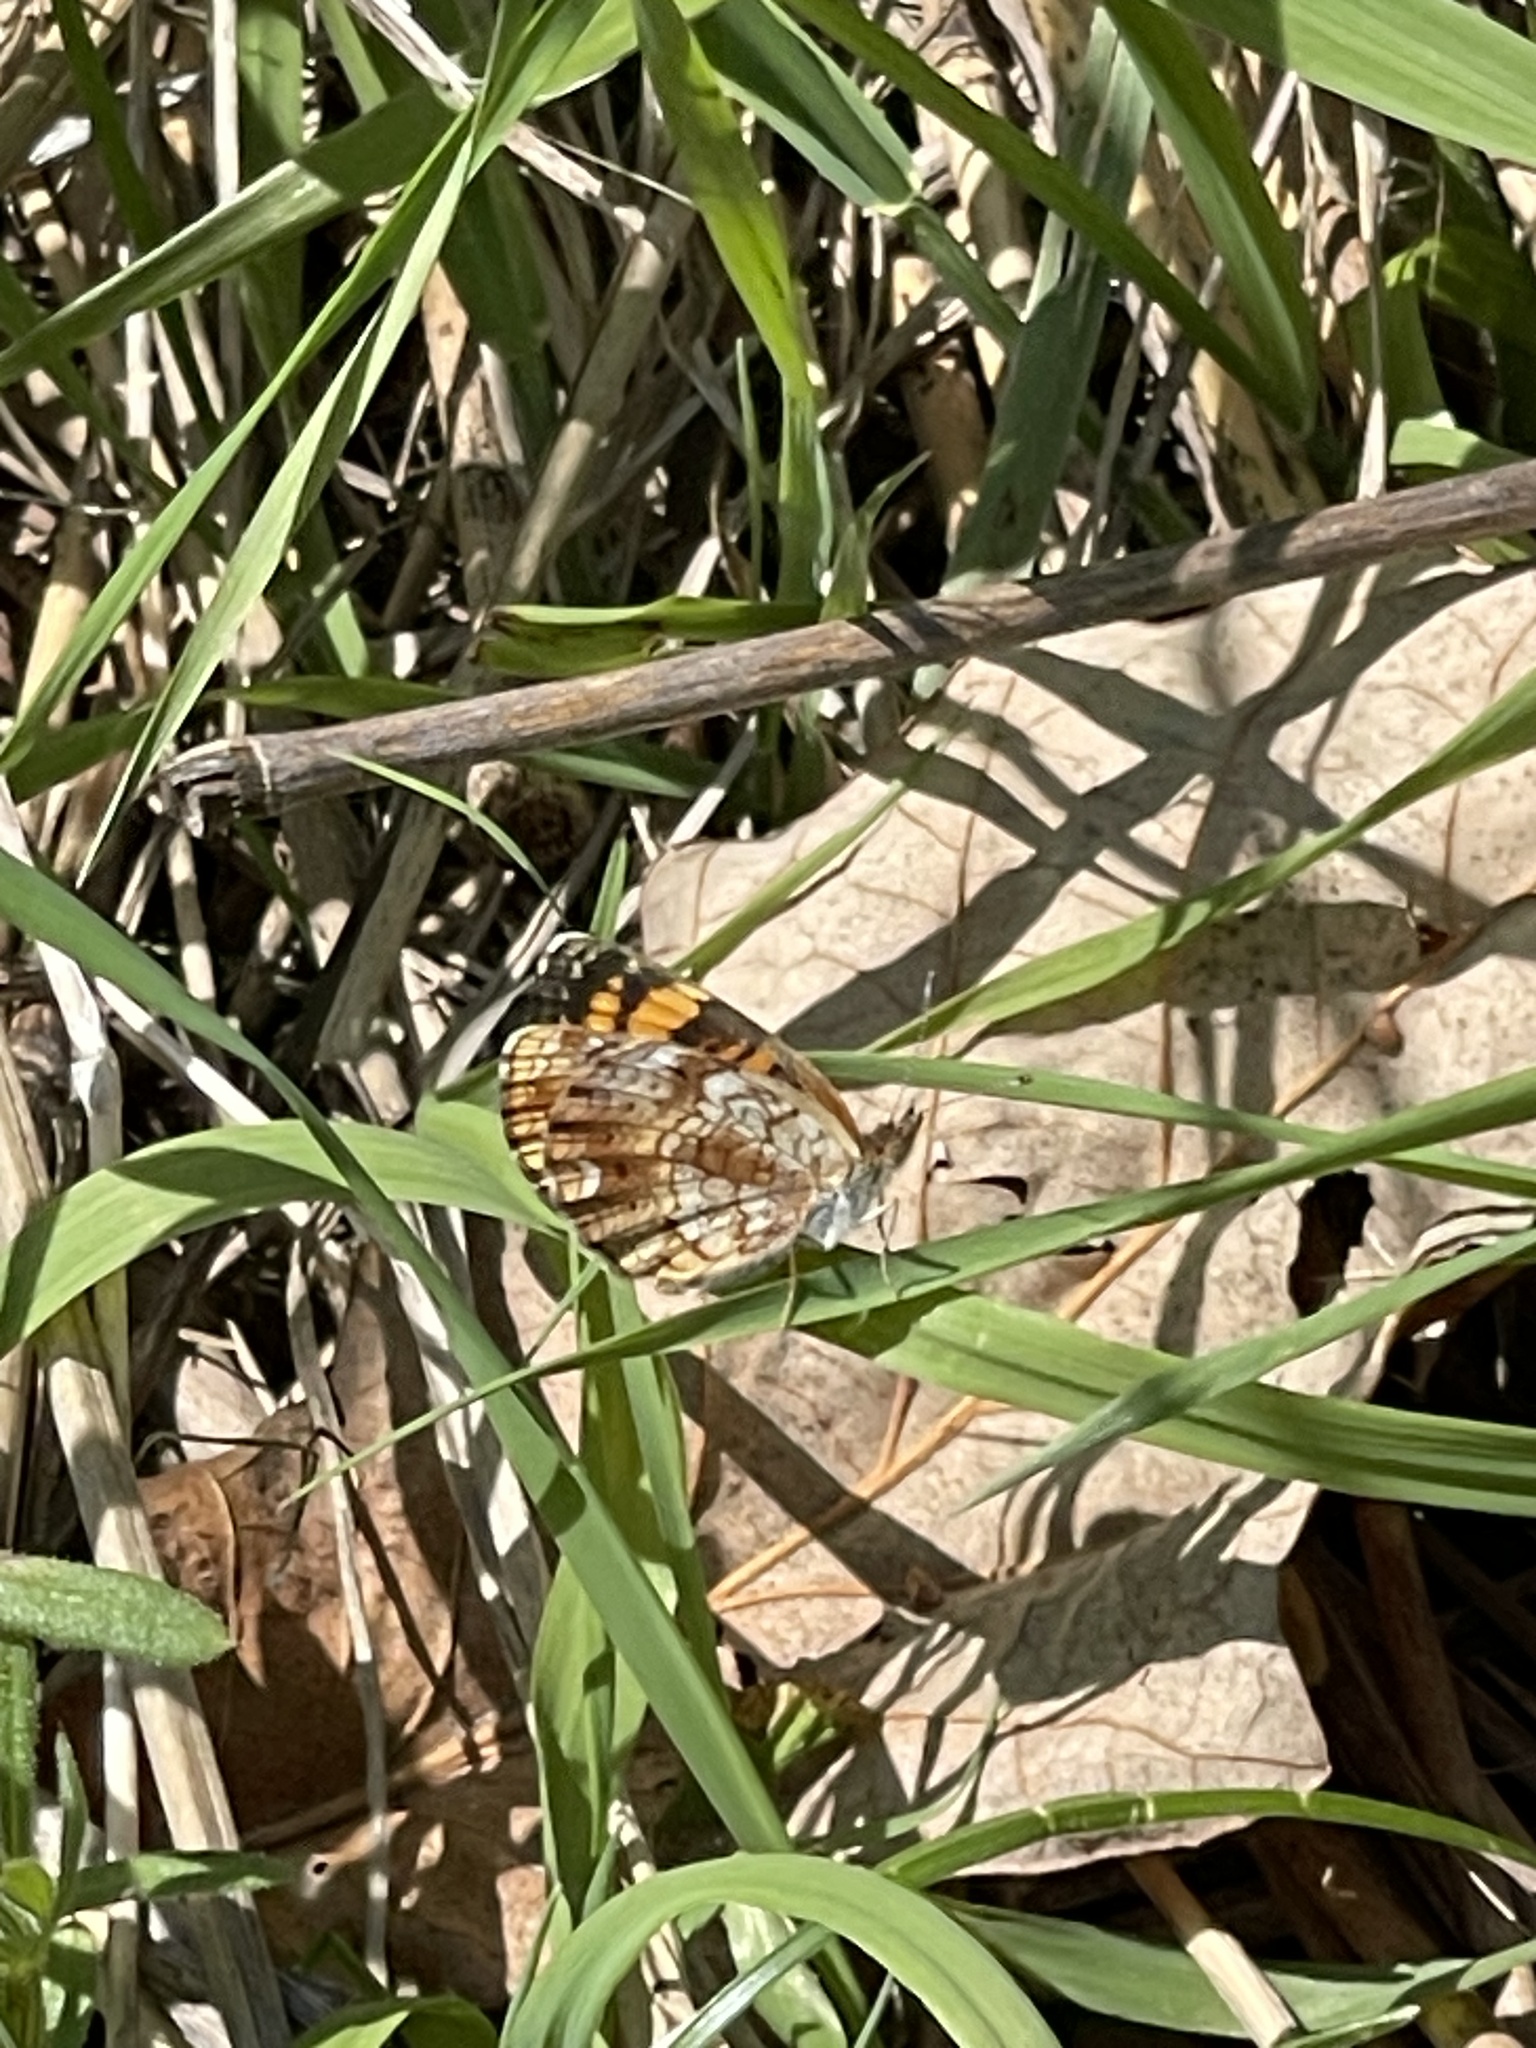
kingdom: Animalia
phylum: Arthropoda
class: Insecta
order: Lepidoptera
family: Nymphalidae
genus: Phyciodes
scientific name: Phyciodes tharos
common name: Pearl crescent
